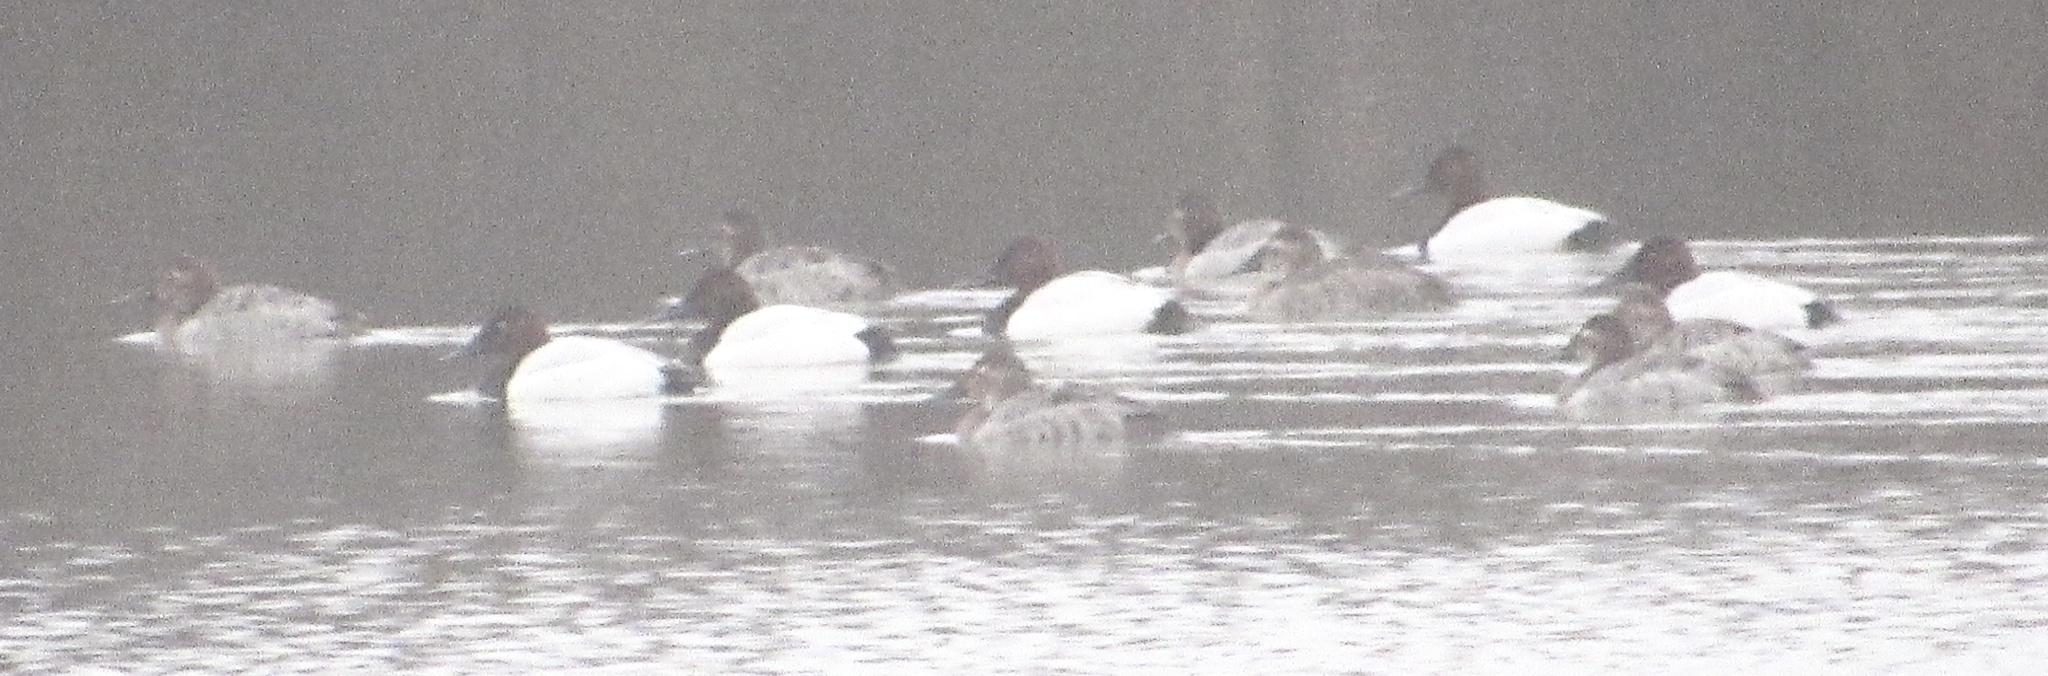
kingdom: Animalia
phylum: Chordata
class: Aves
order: Anseriformes
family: Anatidae
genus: Aythya
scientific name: Aythya valisineria
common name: Canvasback
